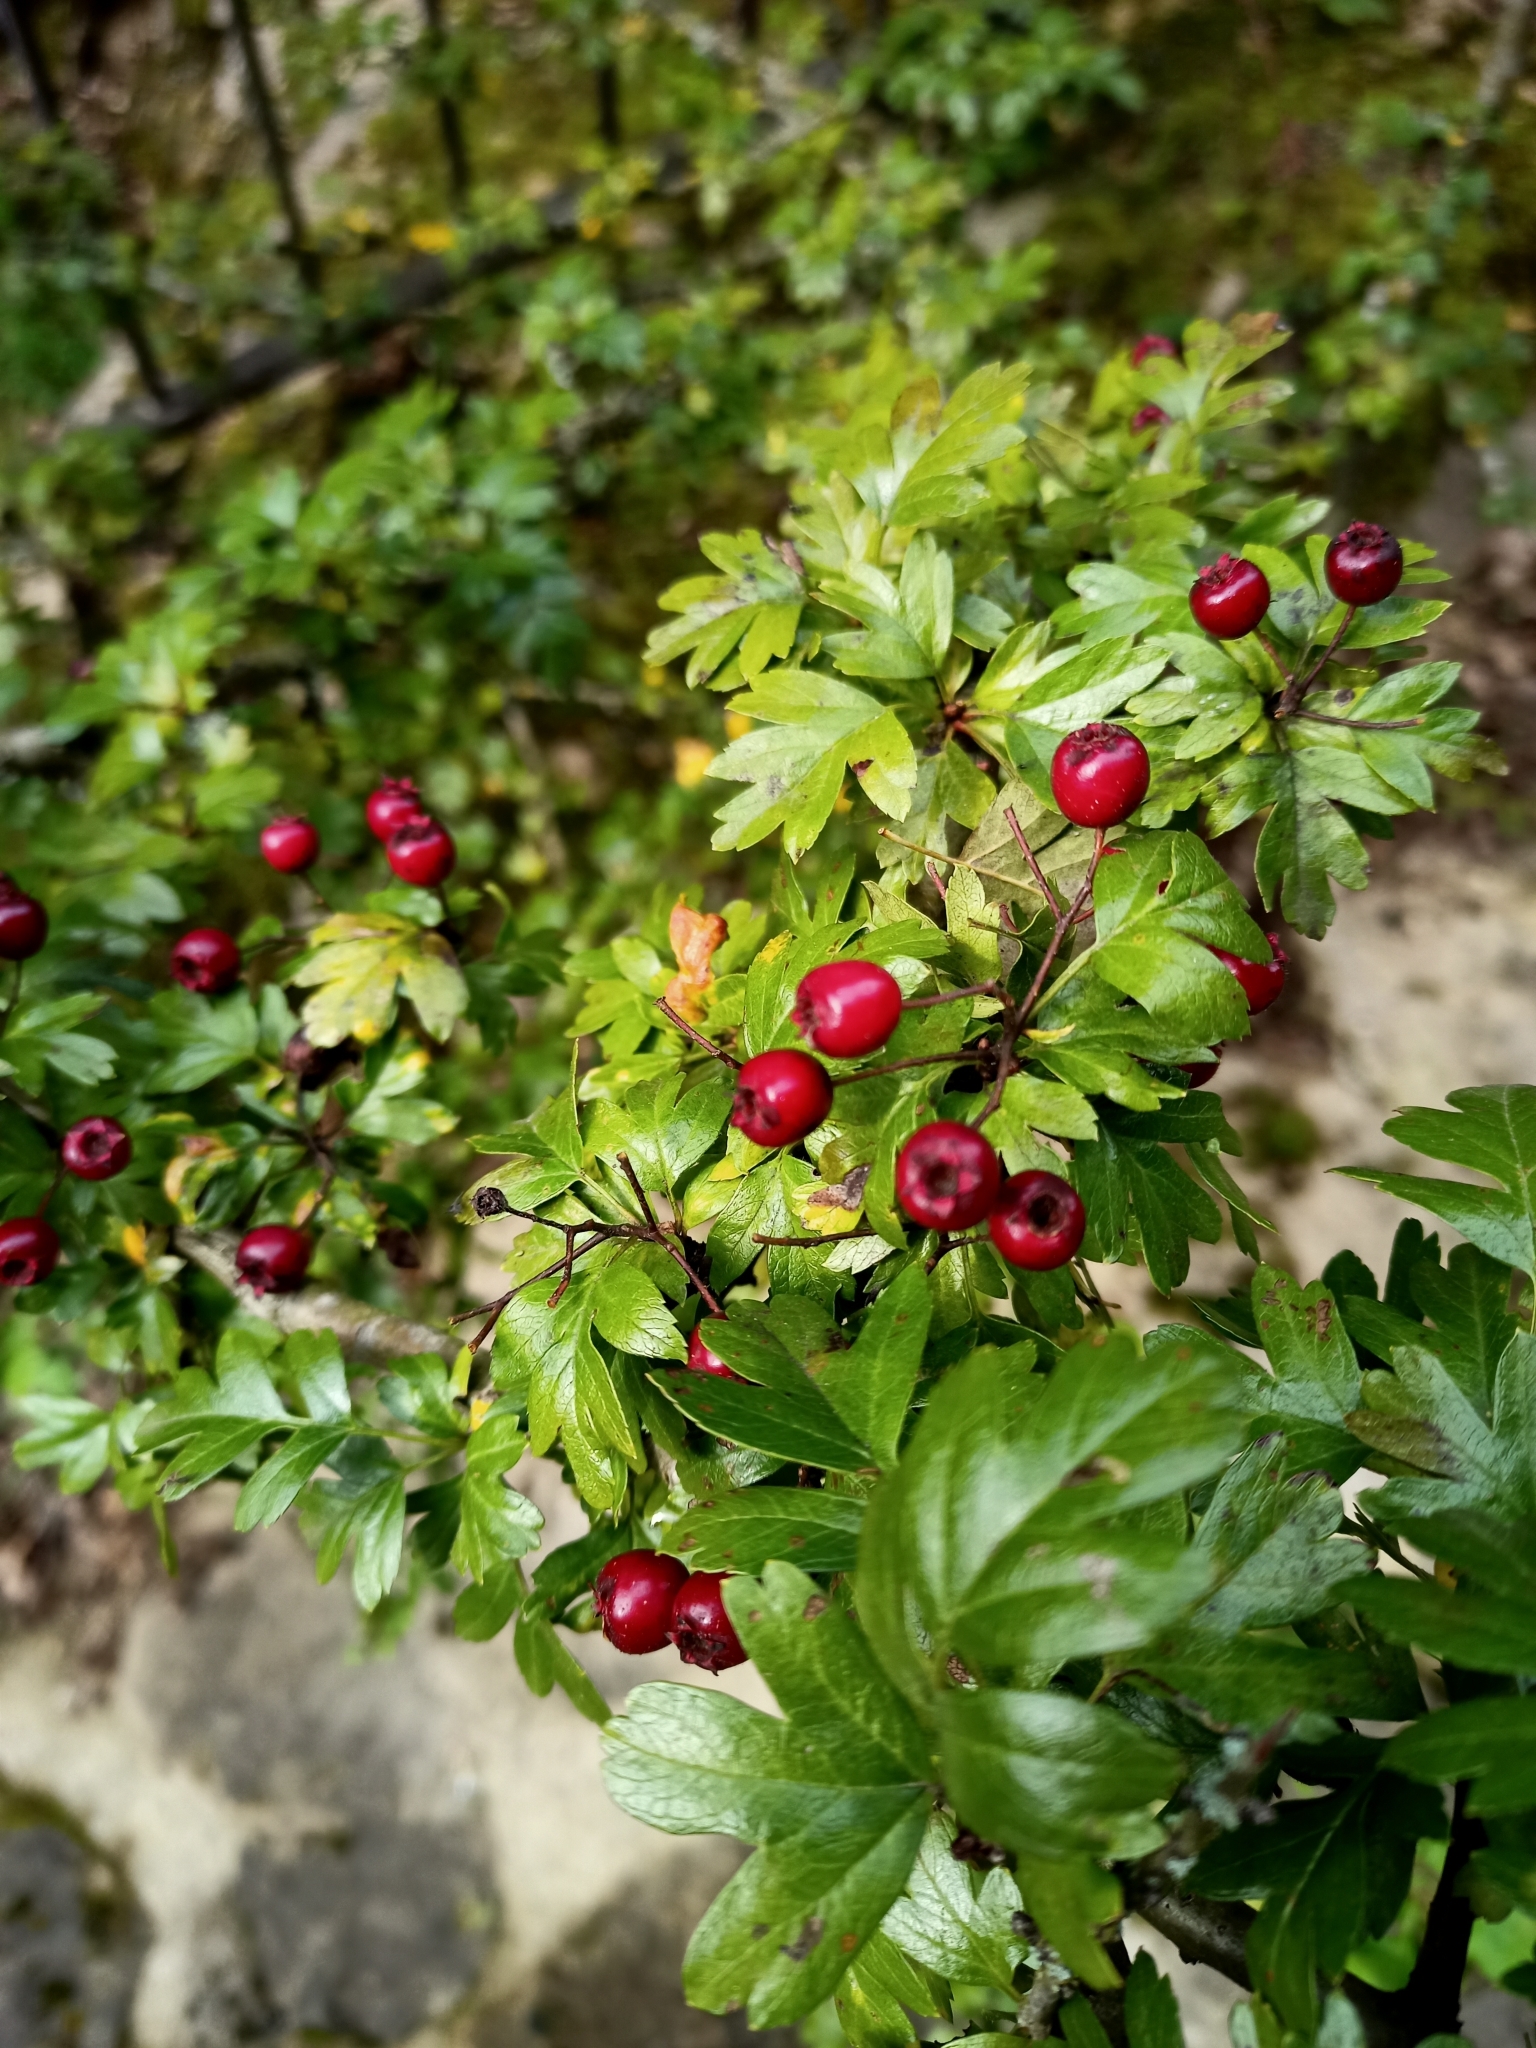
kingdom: Plantae
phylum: Tracheophyta
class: Magnoliopsida
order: Rosales
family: Rosaceae
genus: Crataegus
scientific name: Crataegus monogyna
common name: Hawthorn
